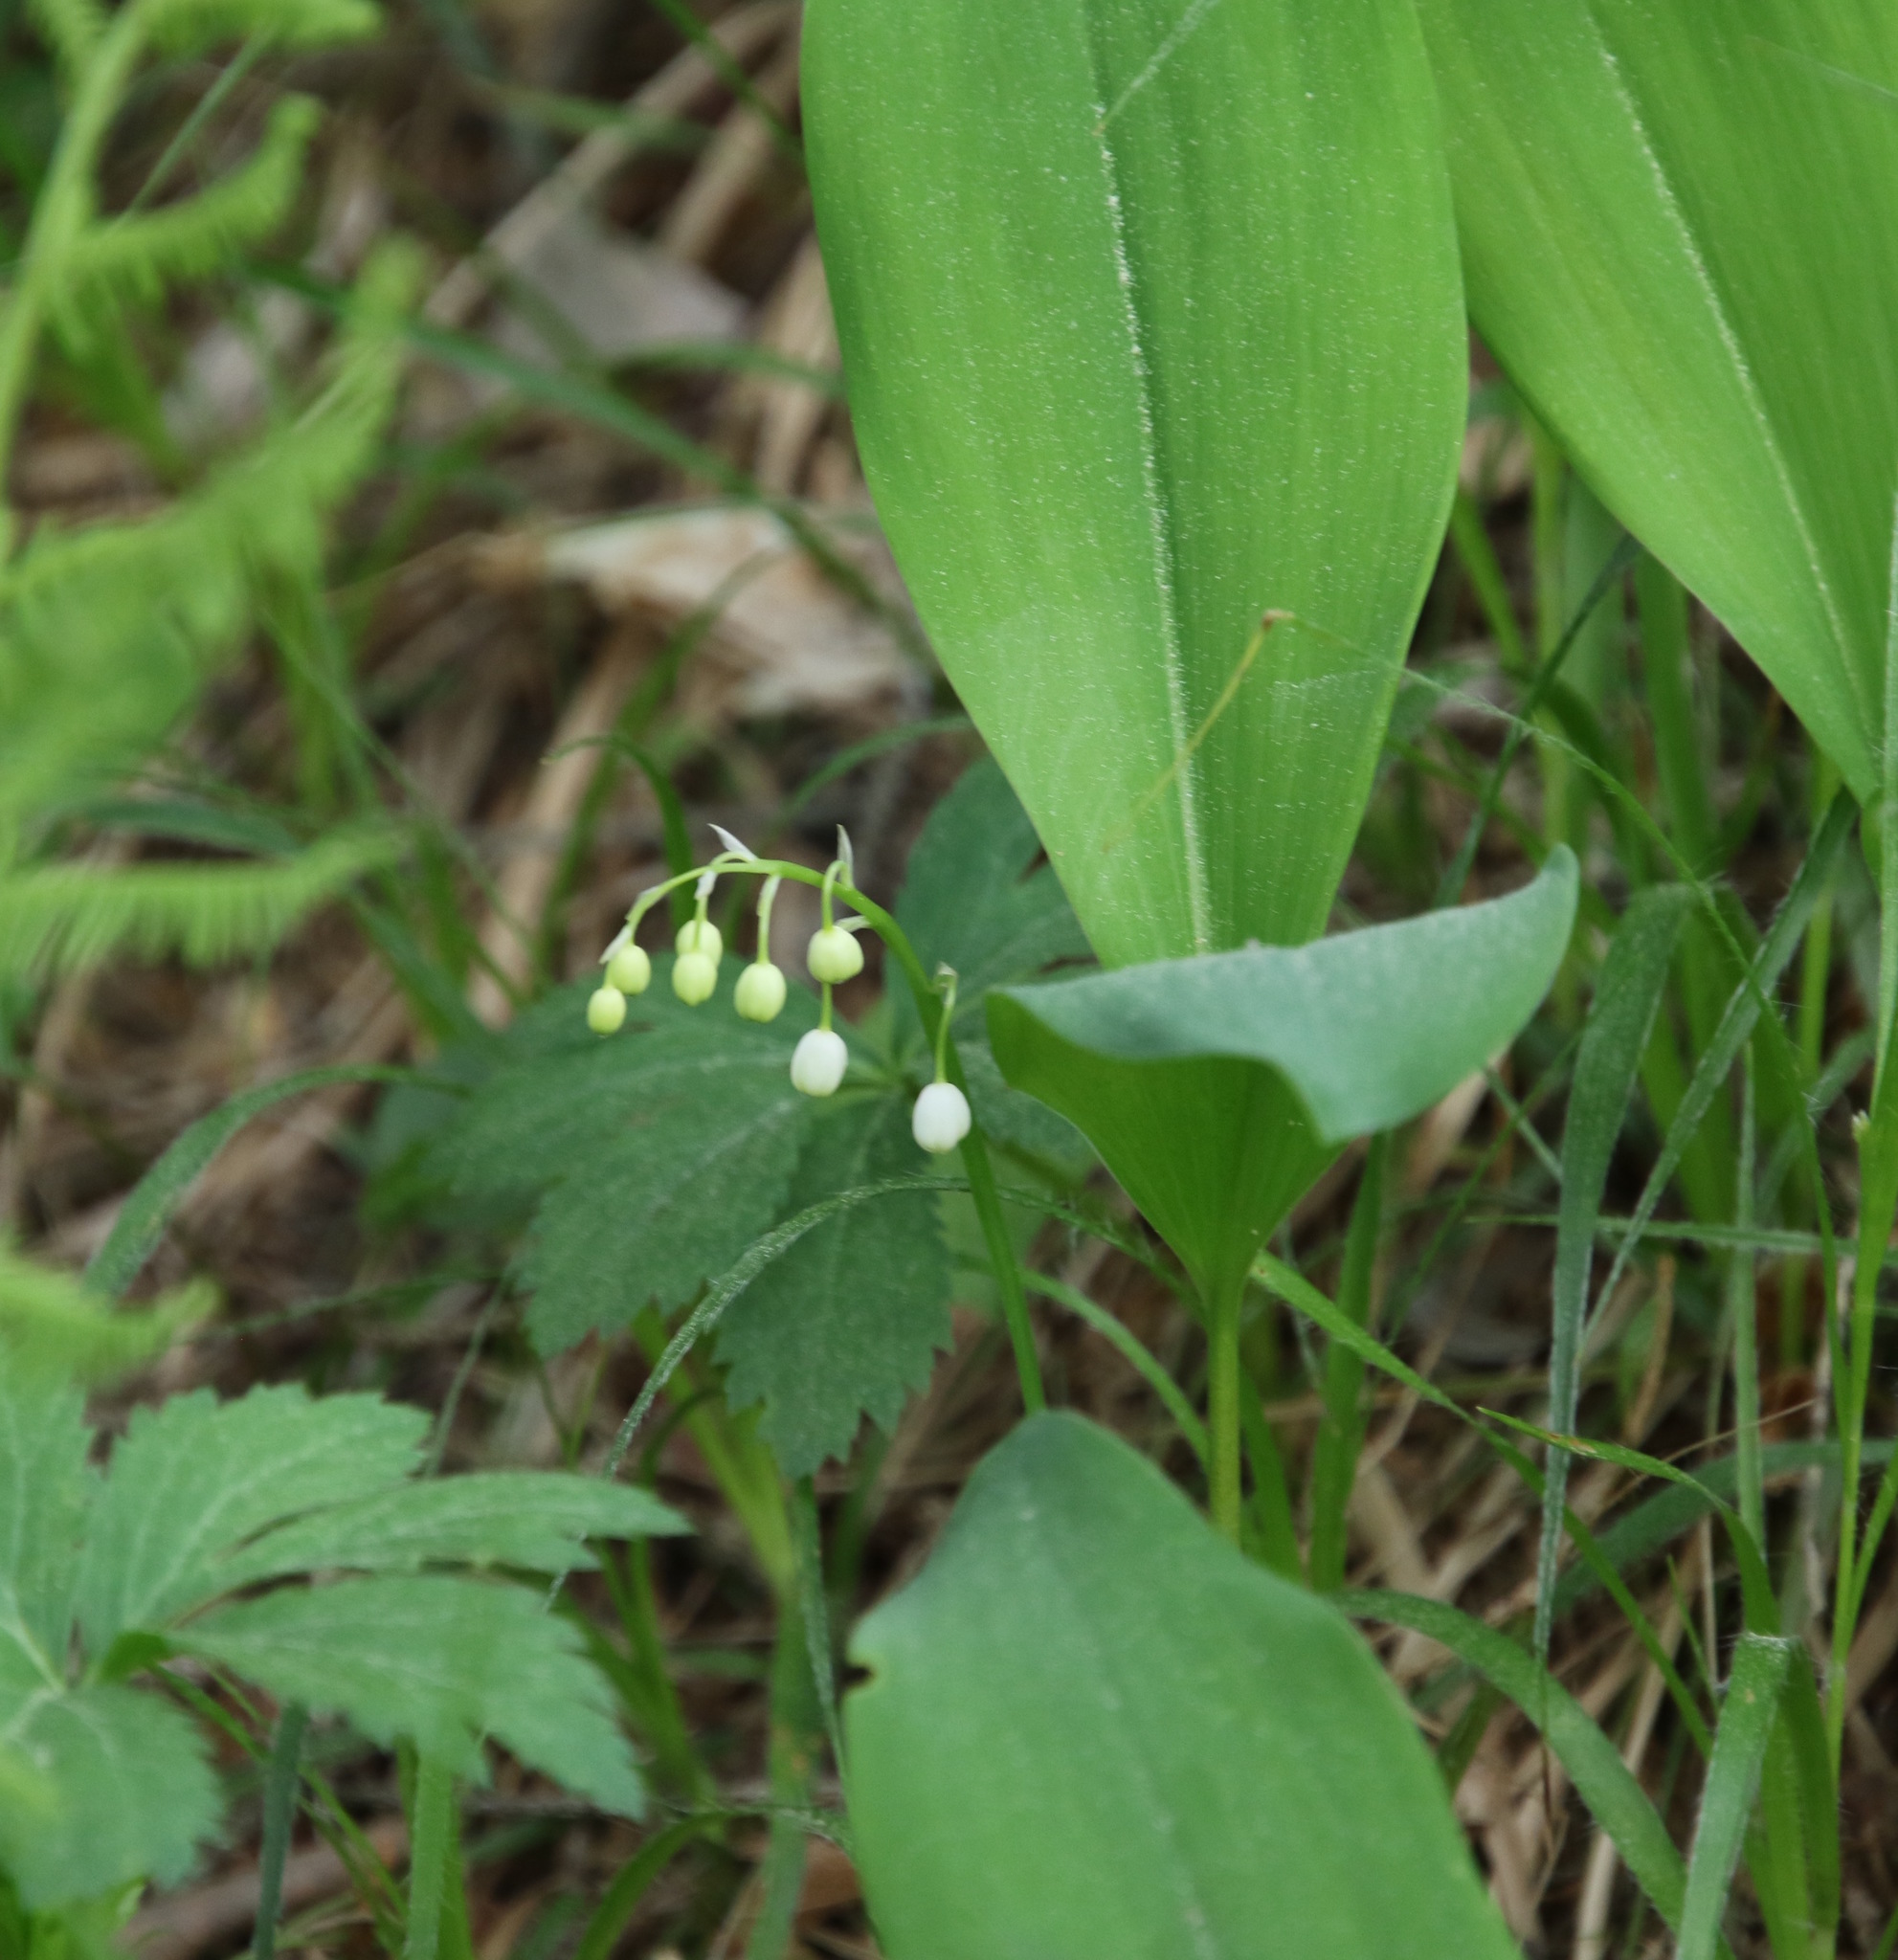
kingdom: Plantae
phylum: Tracheophyta
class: Liliopsida
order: Asparagales
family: Asparagaceae
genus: Convallaria
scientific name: Convallaria majalis
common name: Lily-of-the-valley
